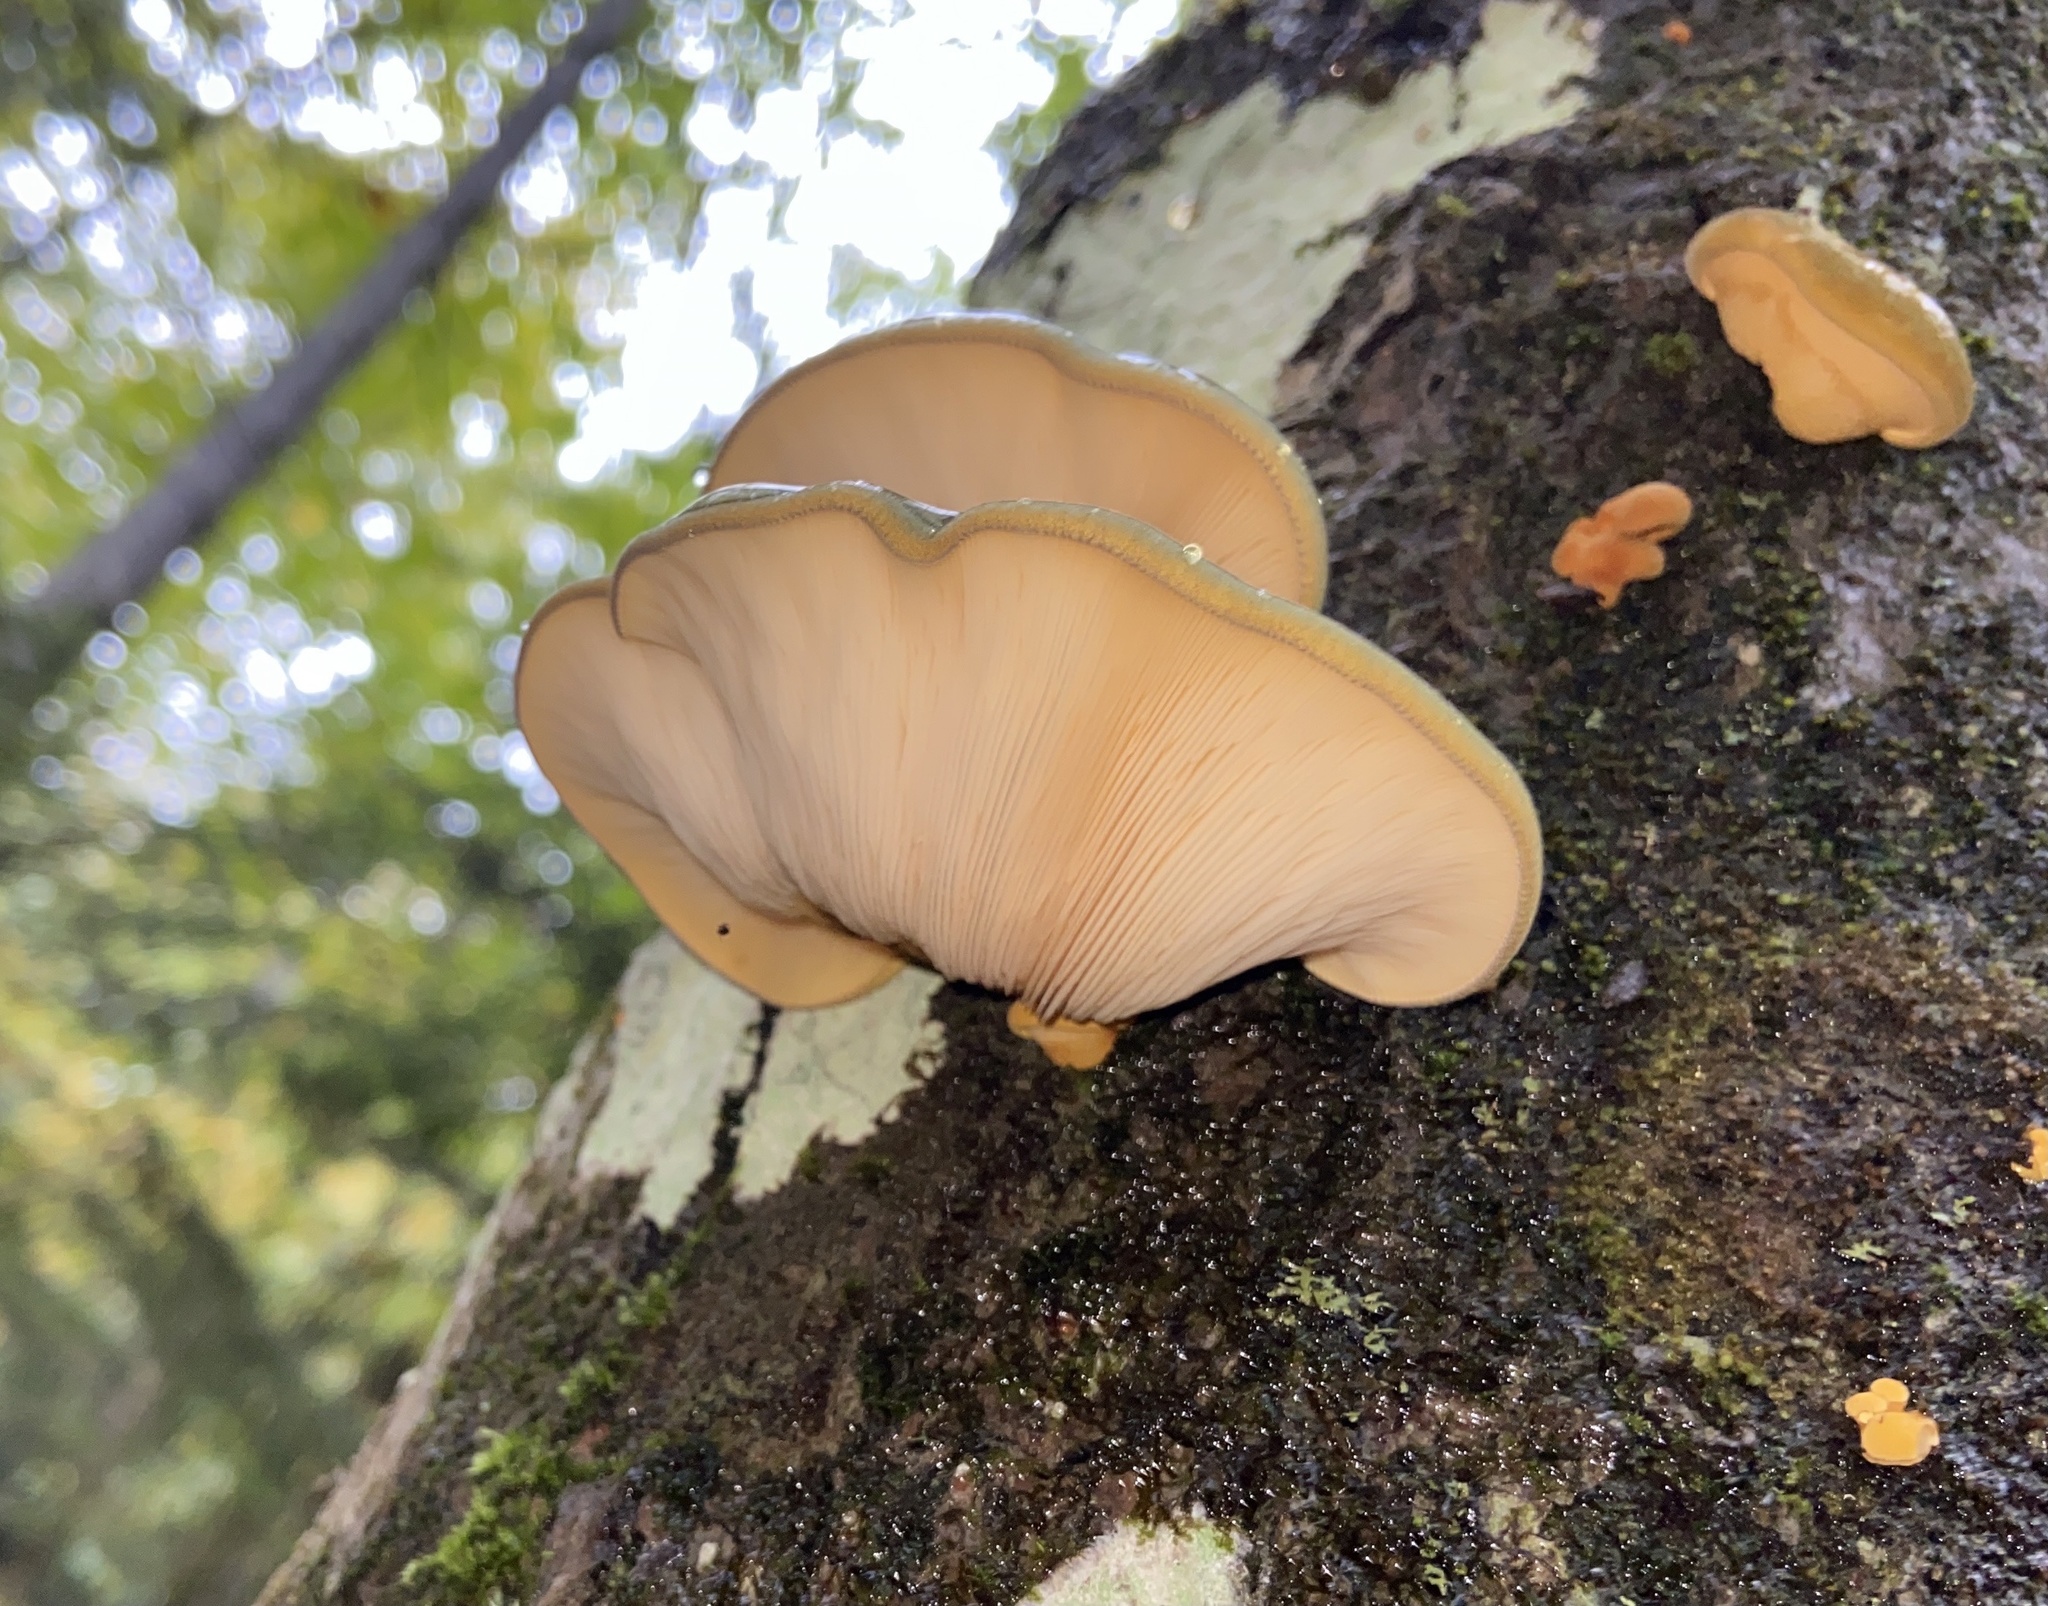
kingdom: Fungi
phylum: Basidiomycota
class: Agaricomycetes
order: Agaricales
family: Sarcomyxaceae
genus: Sarcomyxa
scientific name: Sarcomyxa serotina
